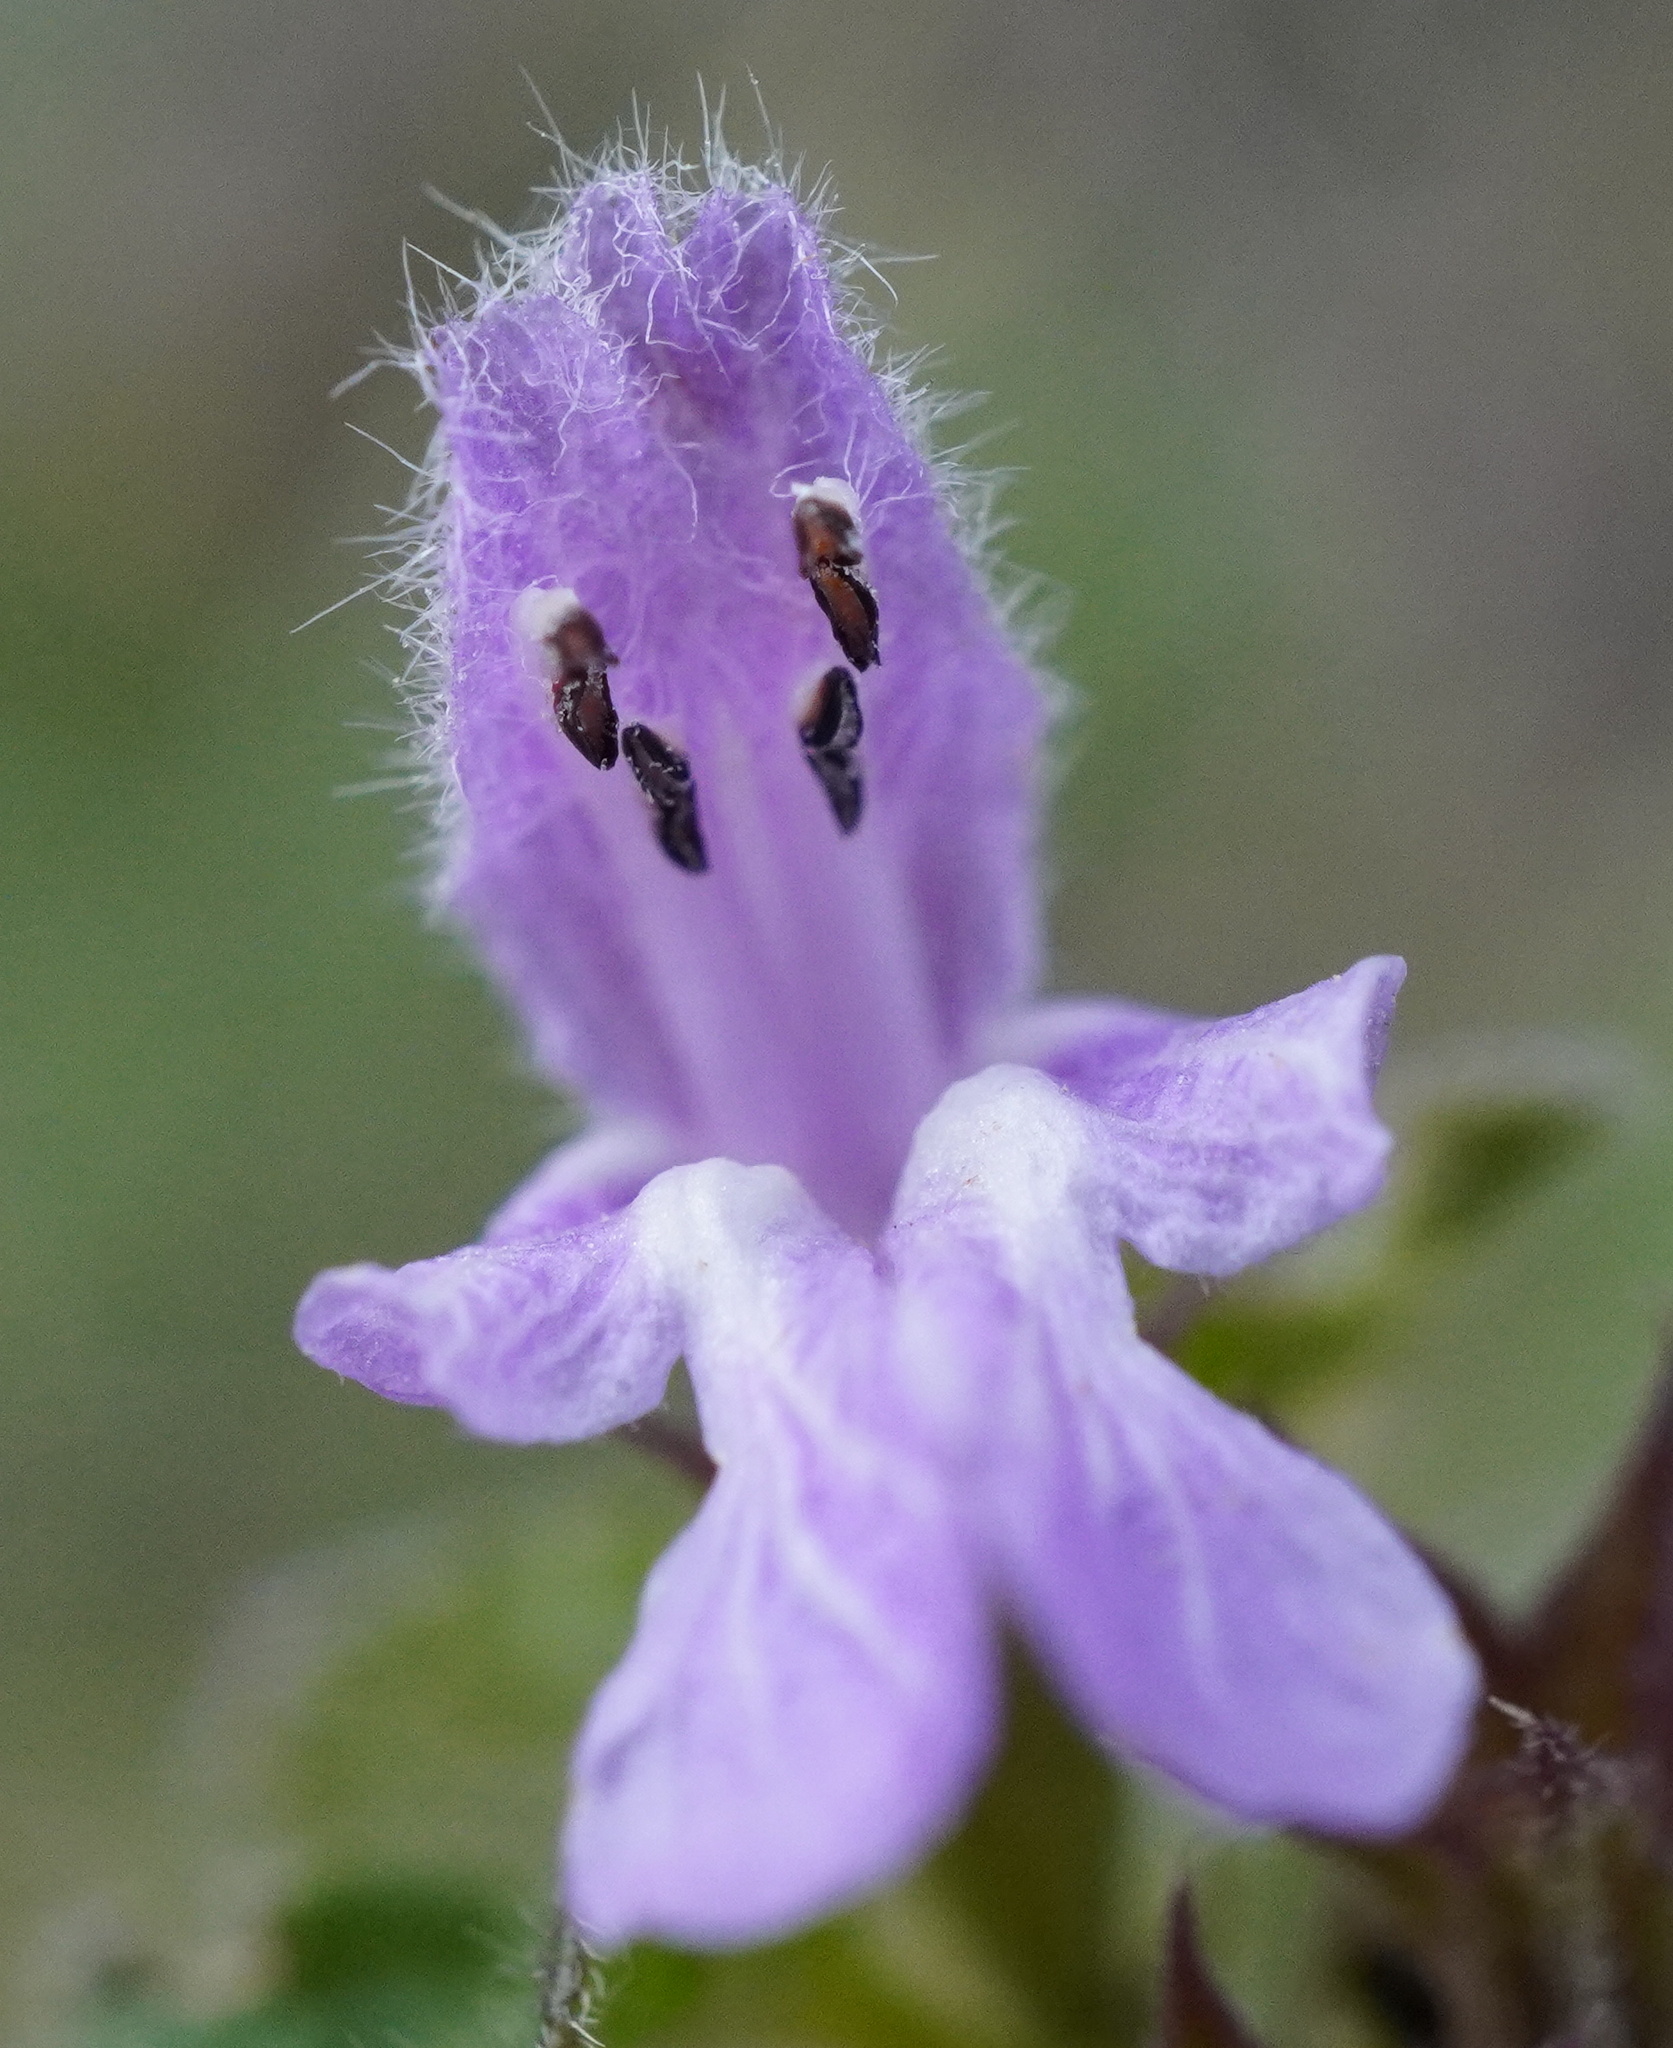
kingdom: Plantae
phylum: Tracheophyta
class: Magnoliopsida
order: Lamiales
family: Lamiaceae
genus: Ballota
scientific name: Ballota nigra
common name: Black horehound
